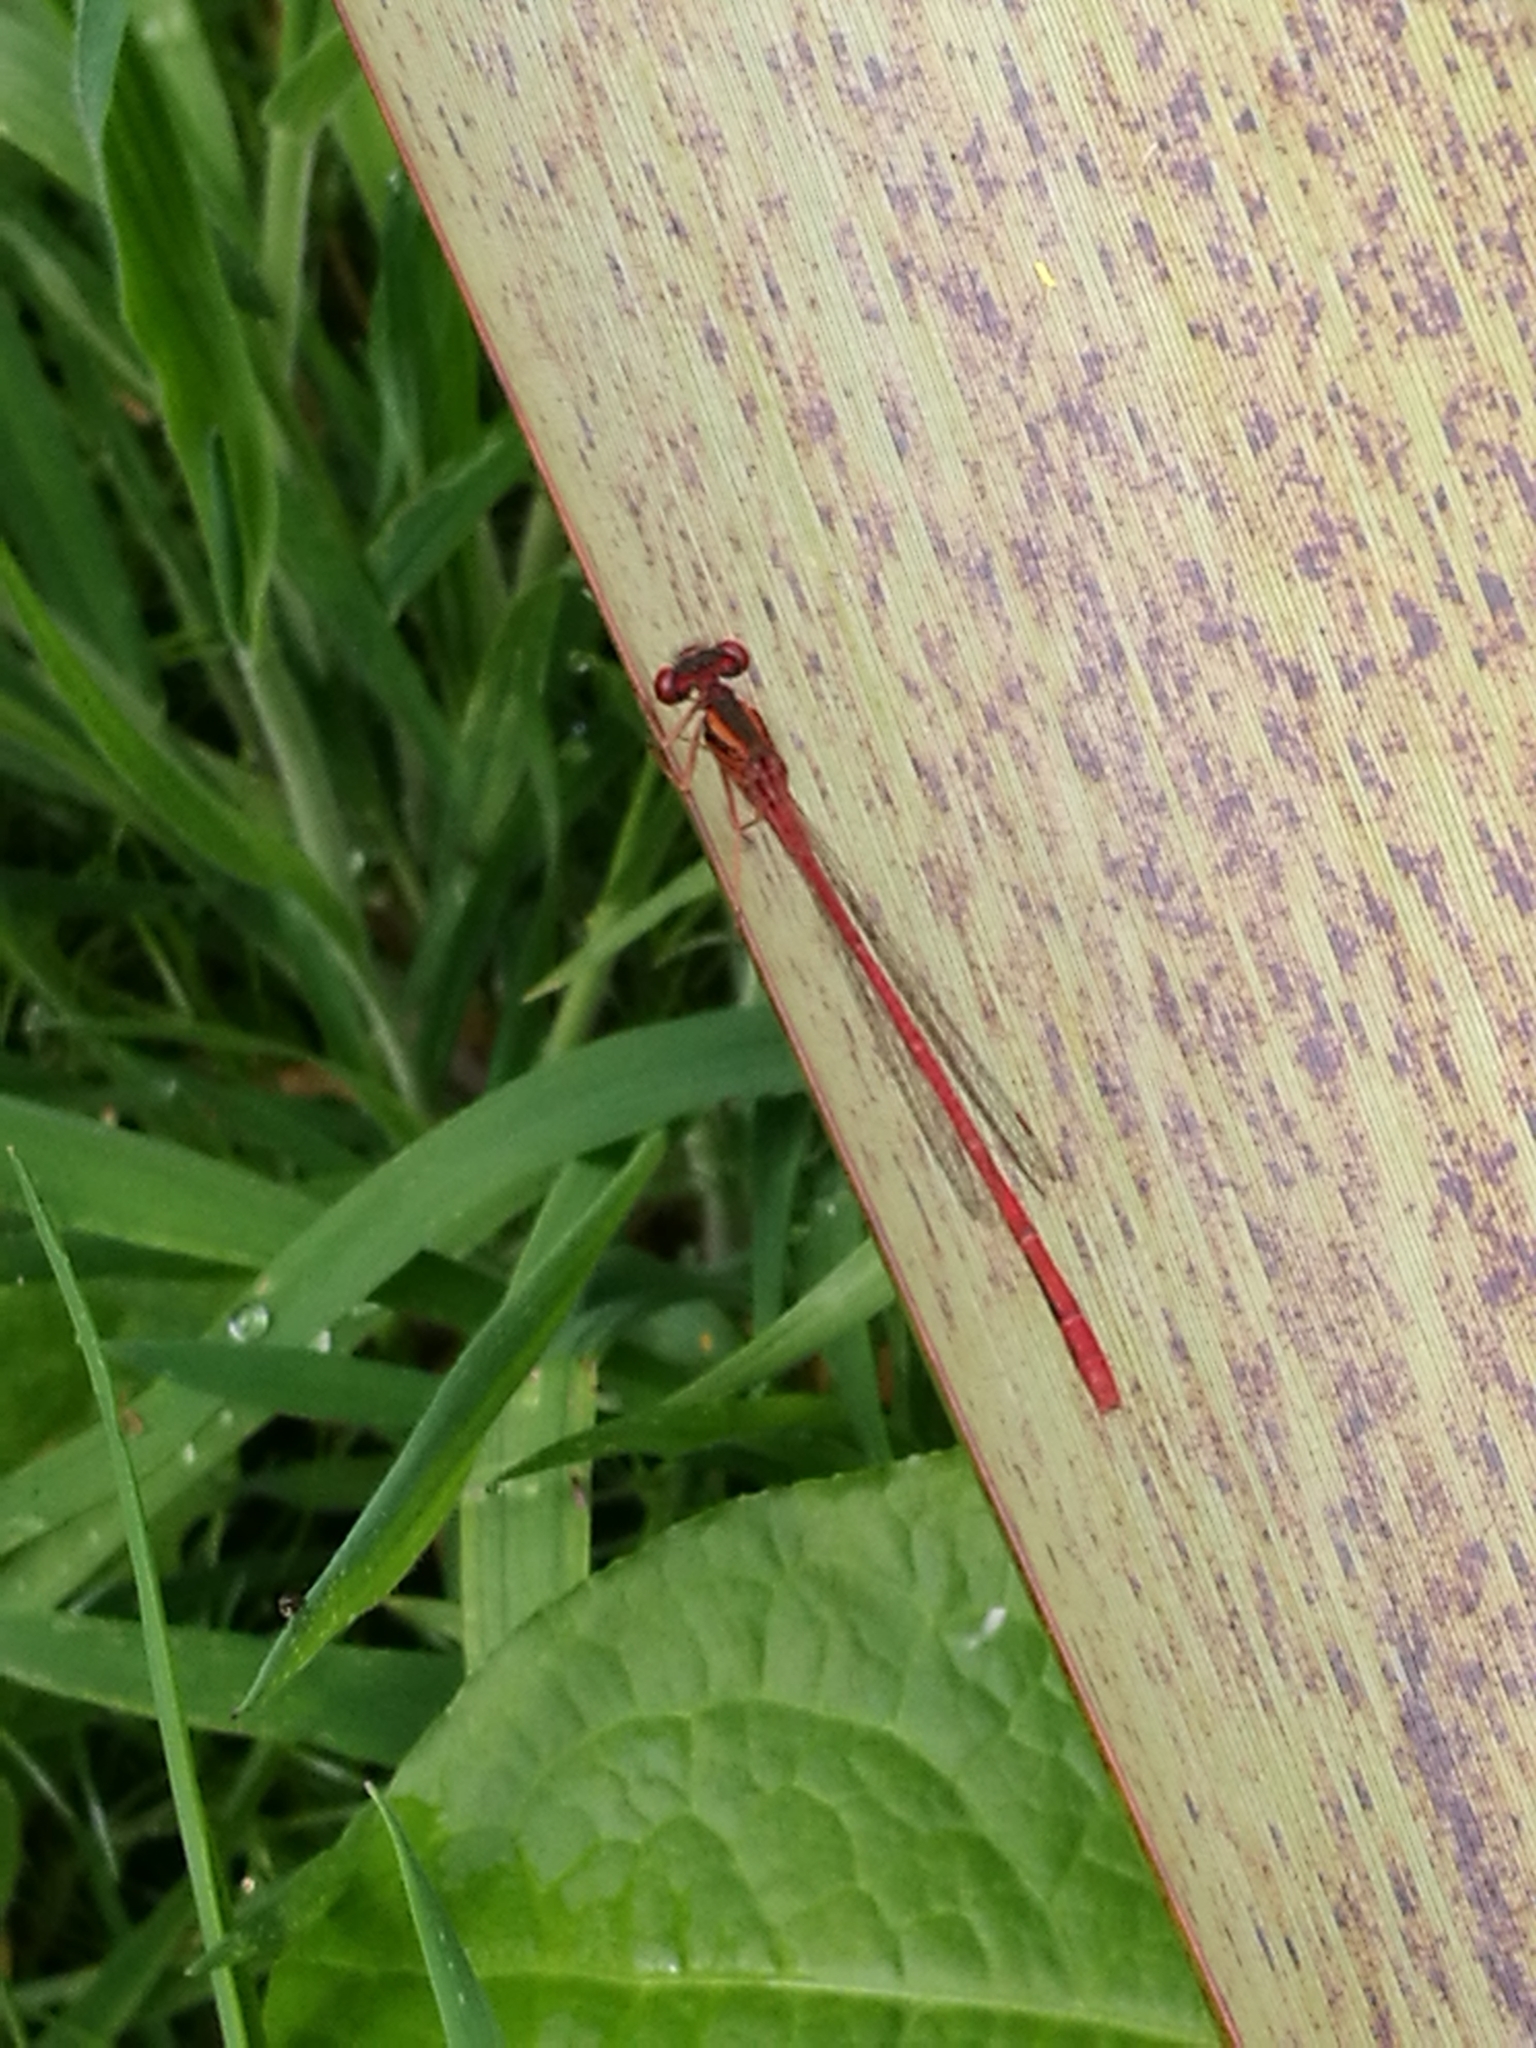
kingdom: Animalia
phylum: Arthropoda
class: Insecta
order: Odonata
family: Coenagrionidae
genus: Xanthocnemis
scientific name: Xanthocnemis zealandica
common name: Common redcoat damselfly
